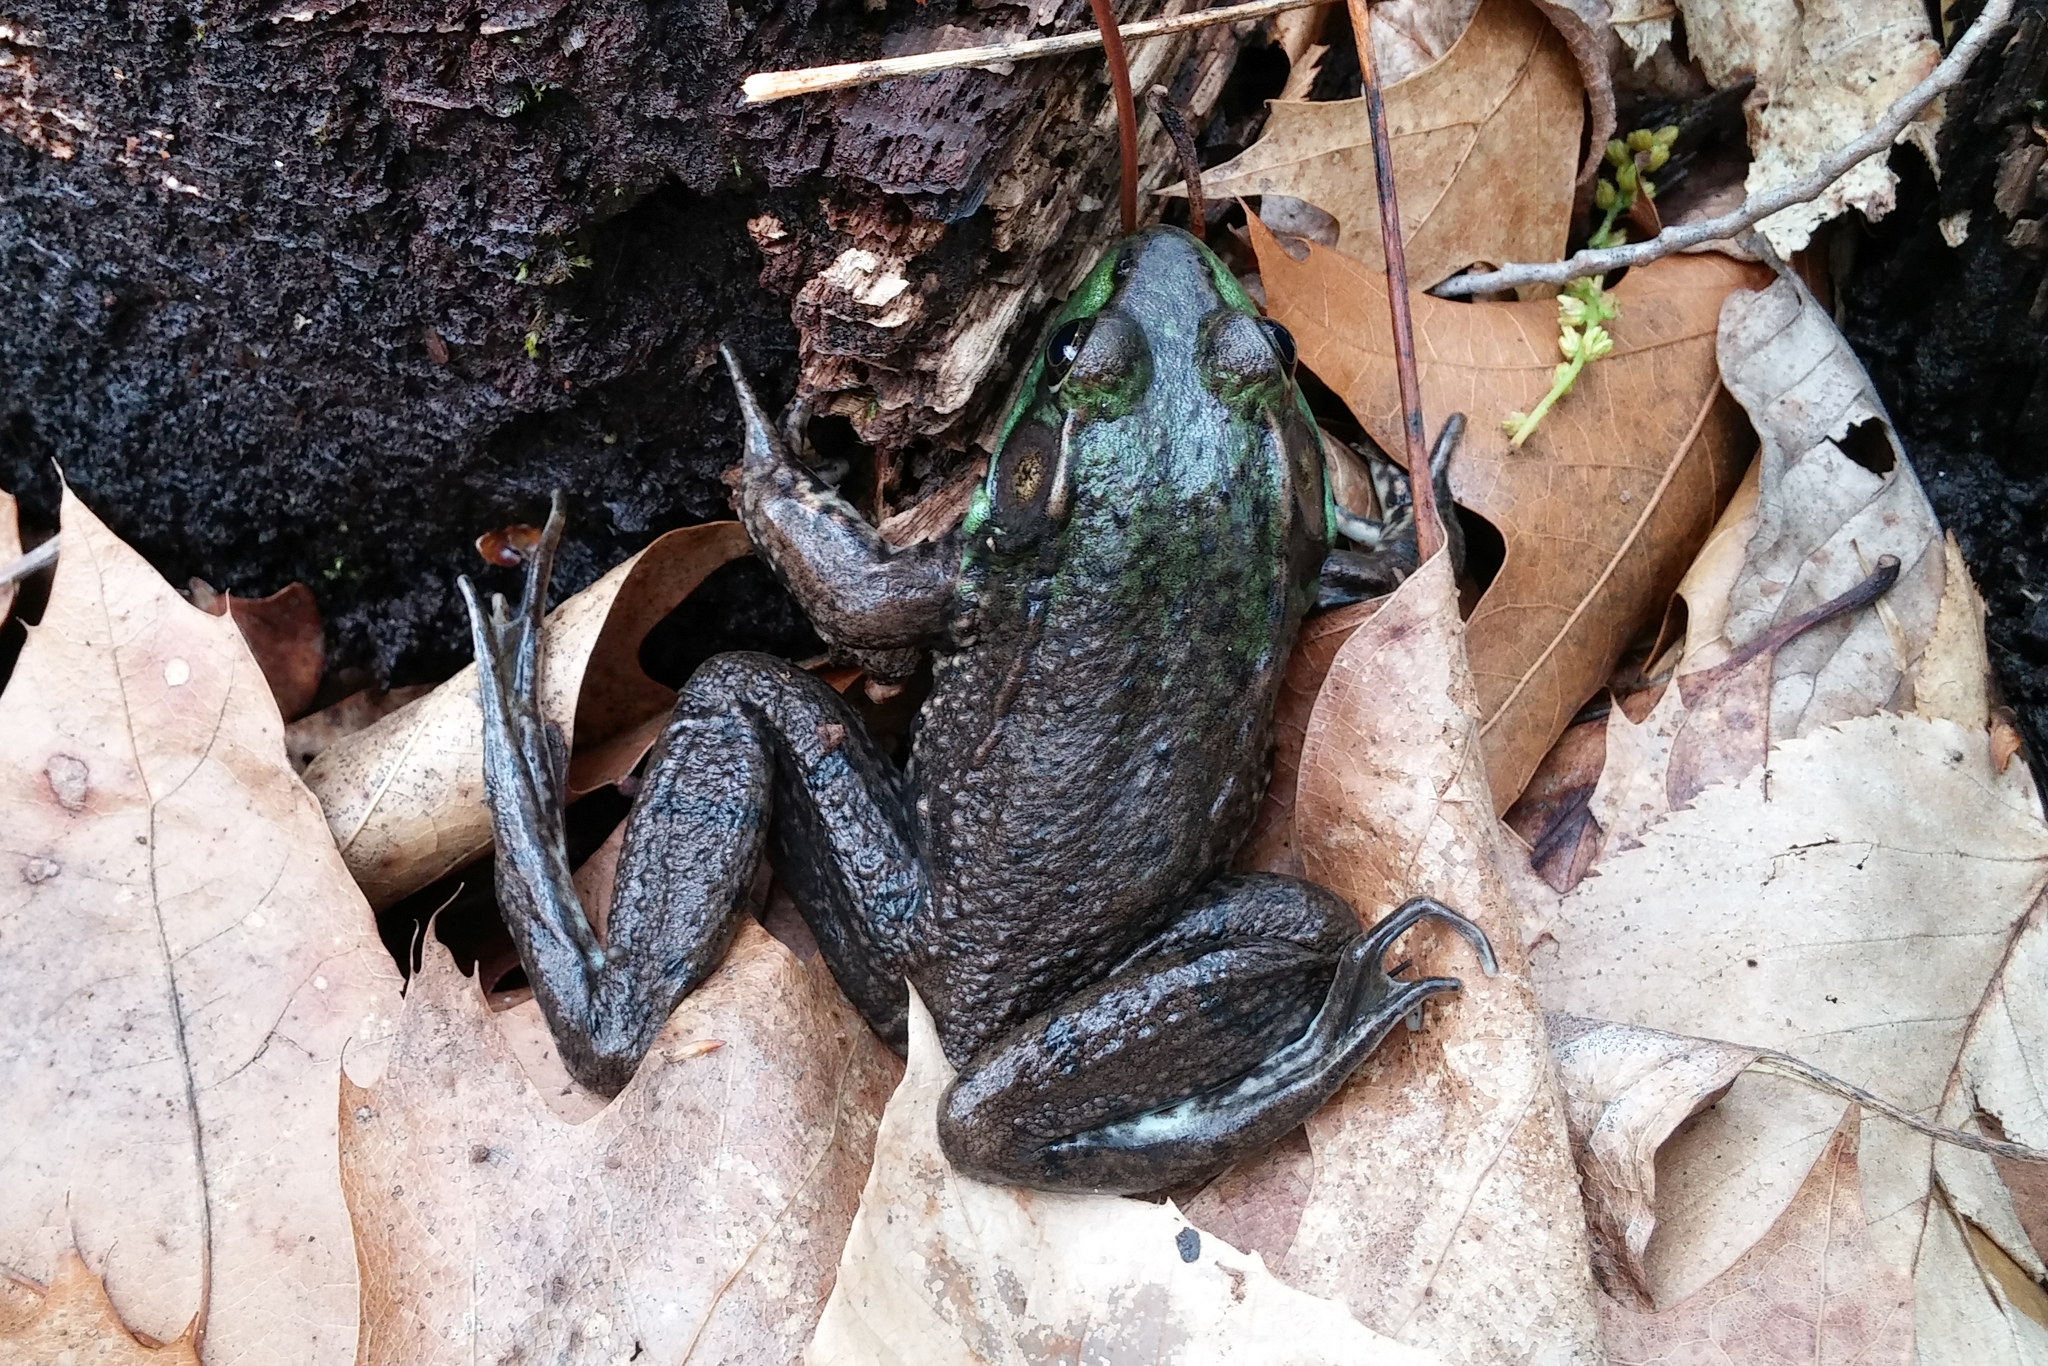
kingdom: Animalia
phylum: Chordata
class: Amphibia
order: Anura
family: Ranidae
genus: Lithobates
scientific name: Lithobates clamitans
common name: Green frog
